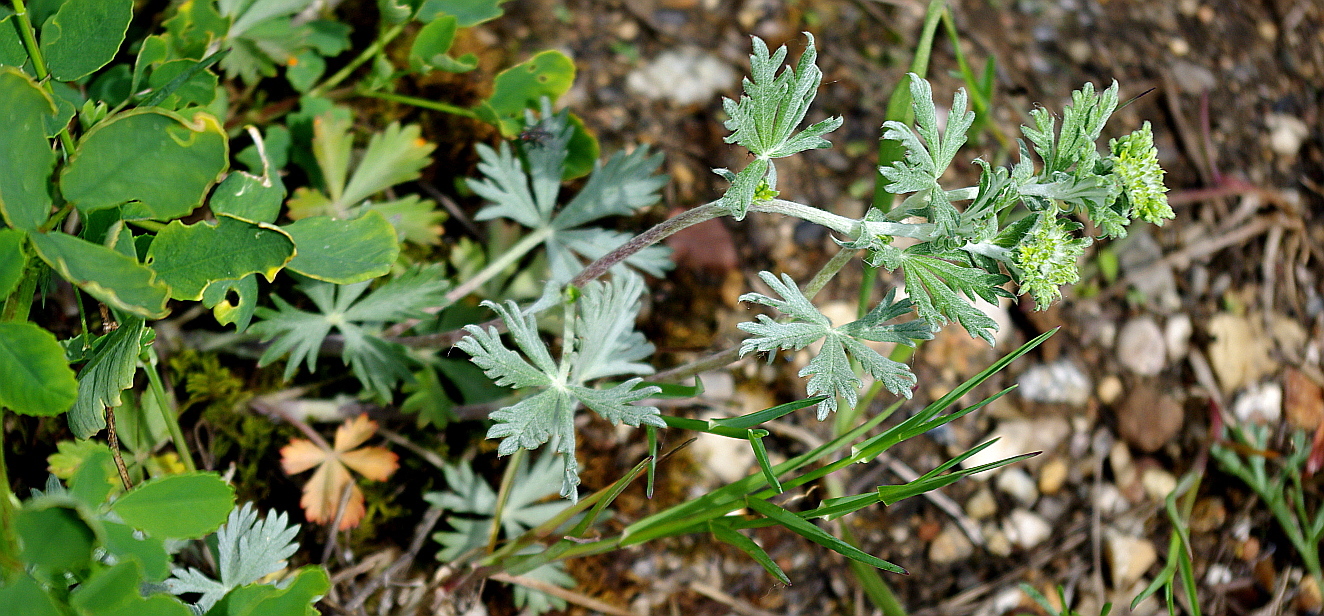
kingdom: Plantae
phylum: Tracheophyta
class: Magnoliopsida
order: Rosales
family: Rosaceae
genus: Potentilla
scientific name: Potentilla argentea
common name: Hoary cinquefoil
